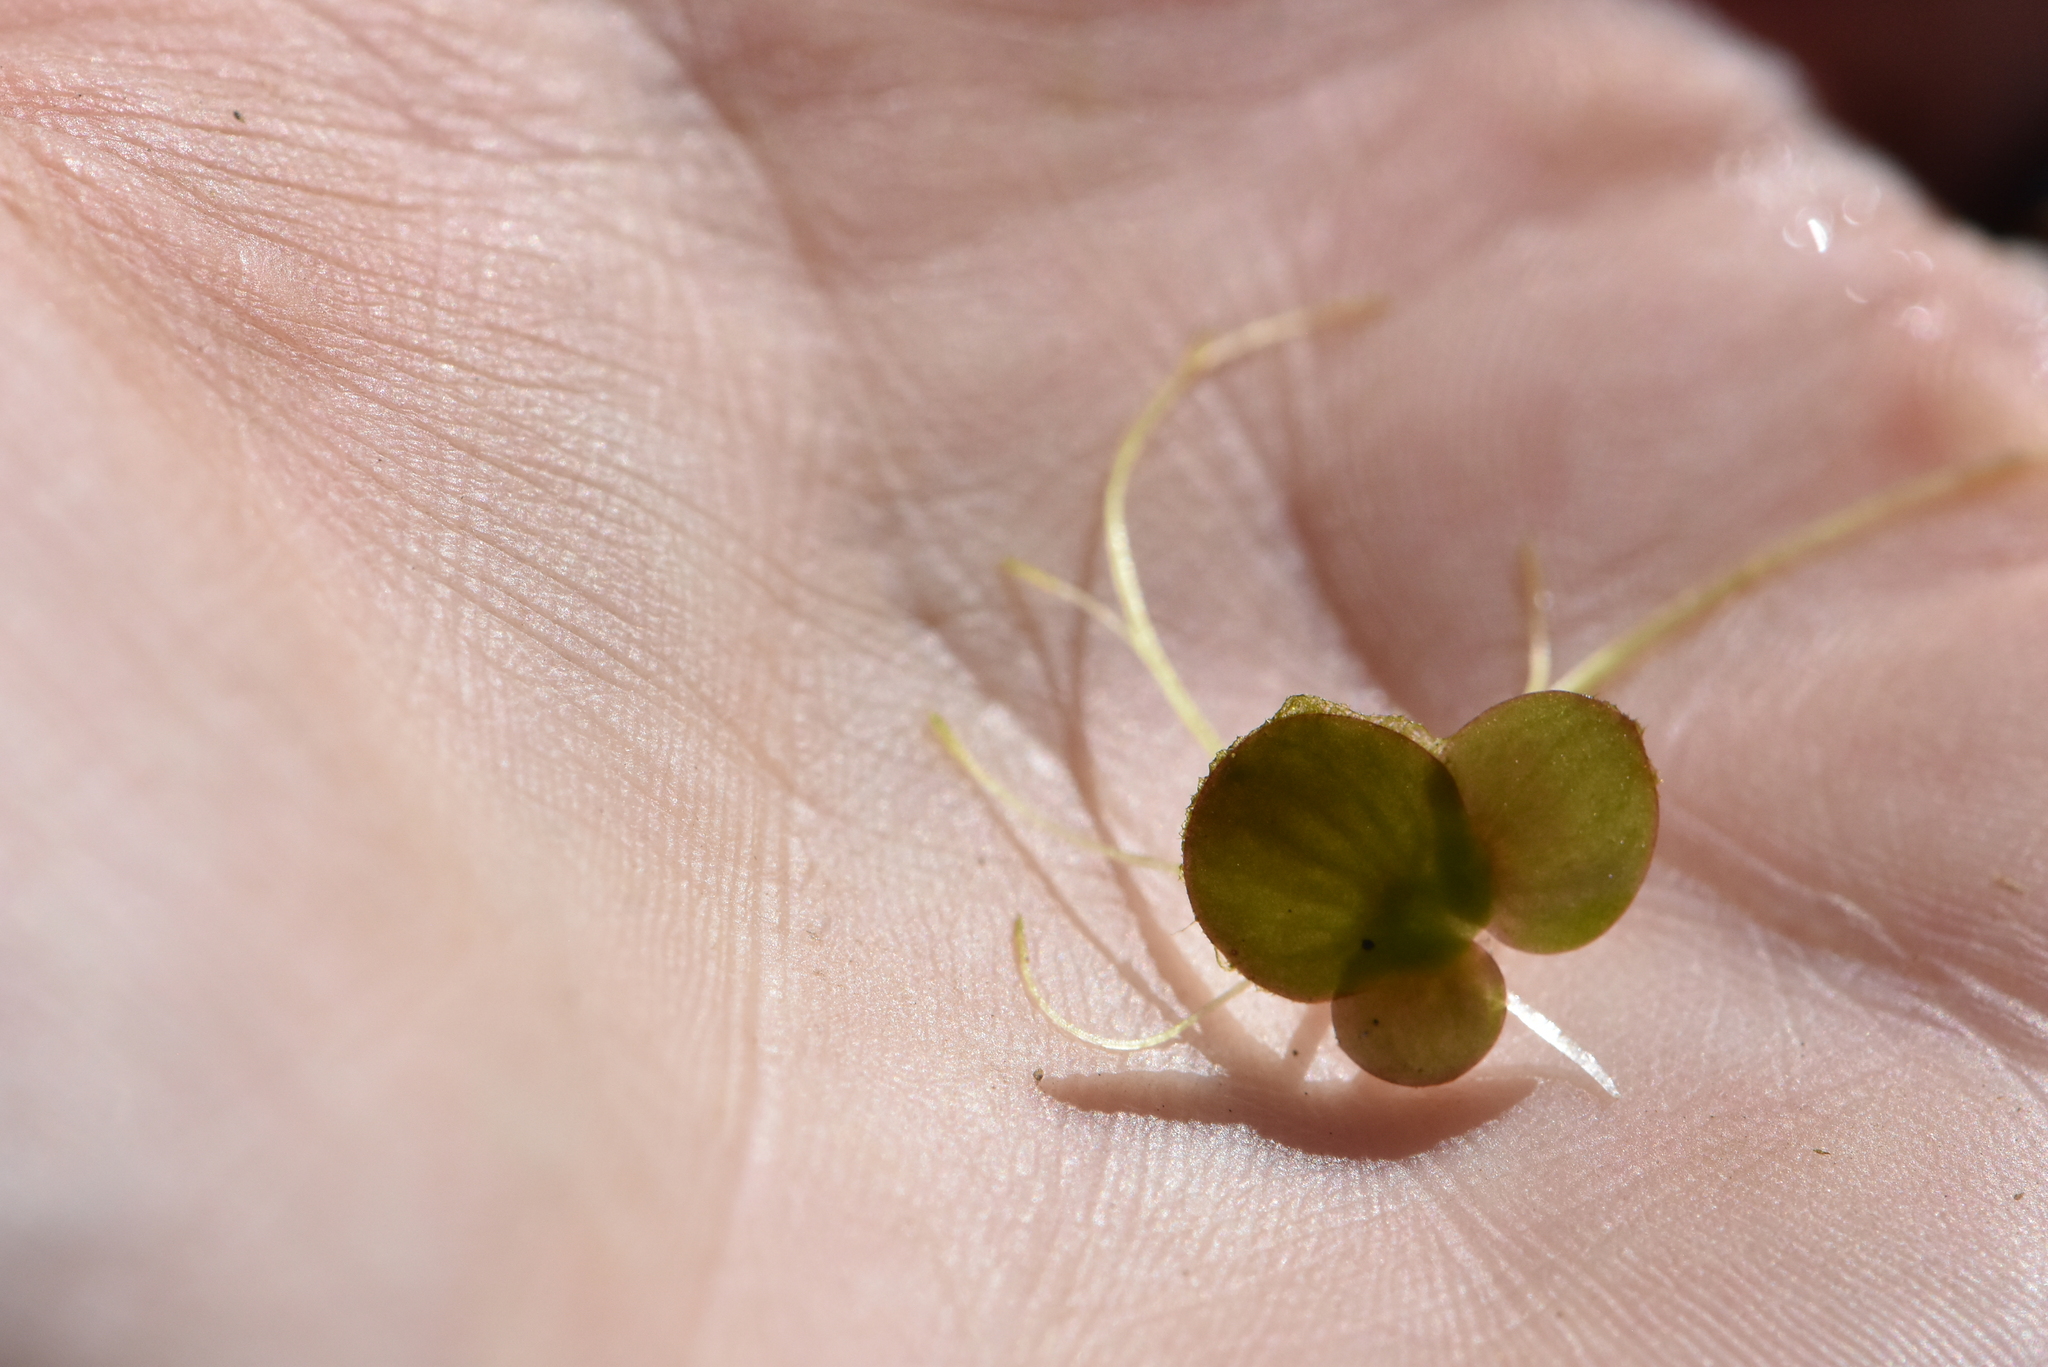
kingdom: Plantae
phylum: Tracheophyta
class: Liliopsida
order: Alismatales
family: Araceae
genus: Spirodela
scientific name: Spirodela polyrhiza
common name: Great duckweed
